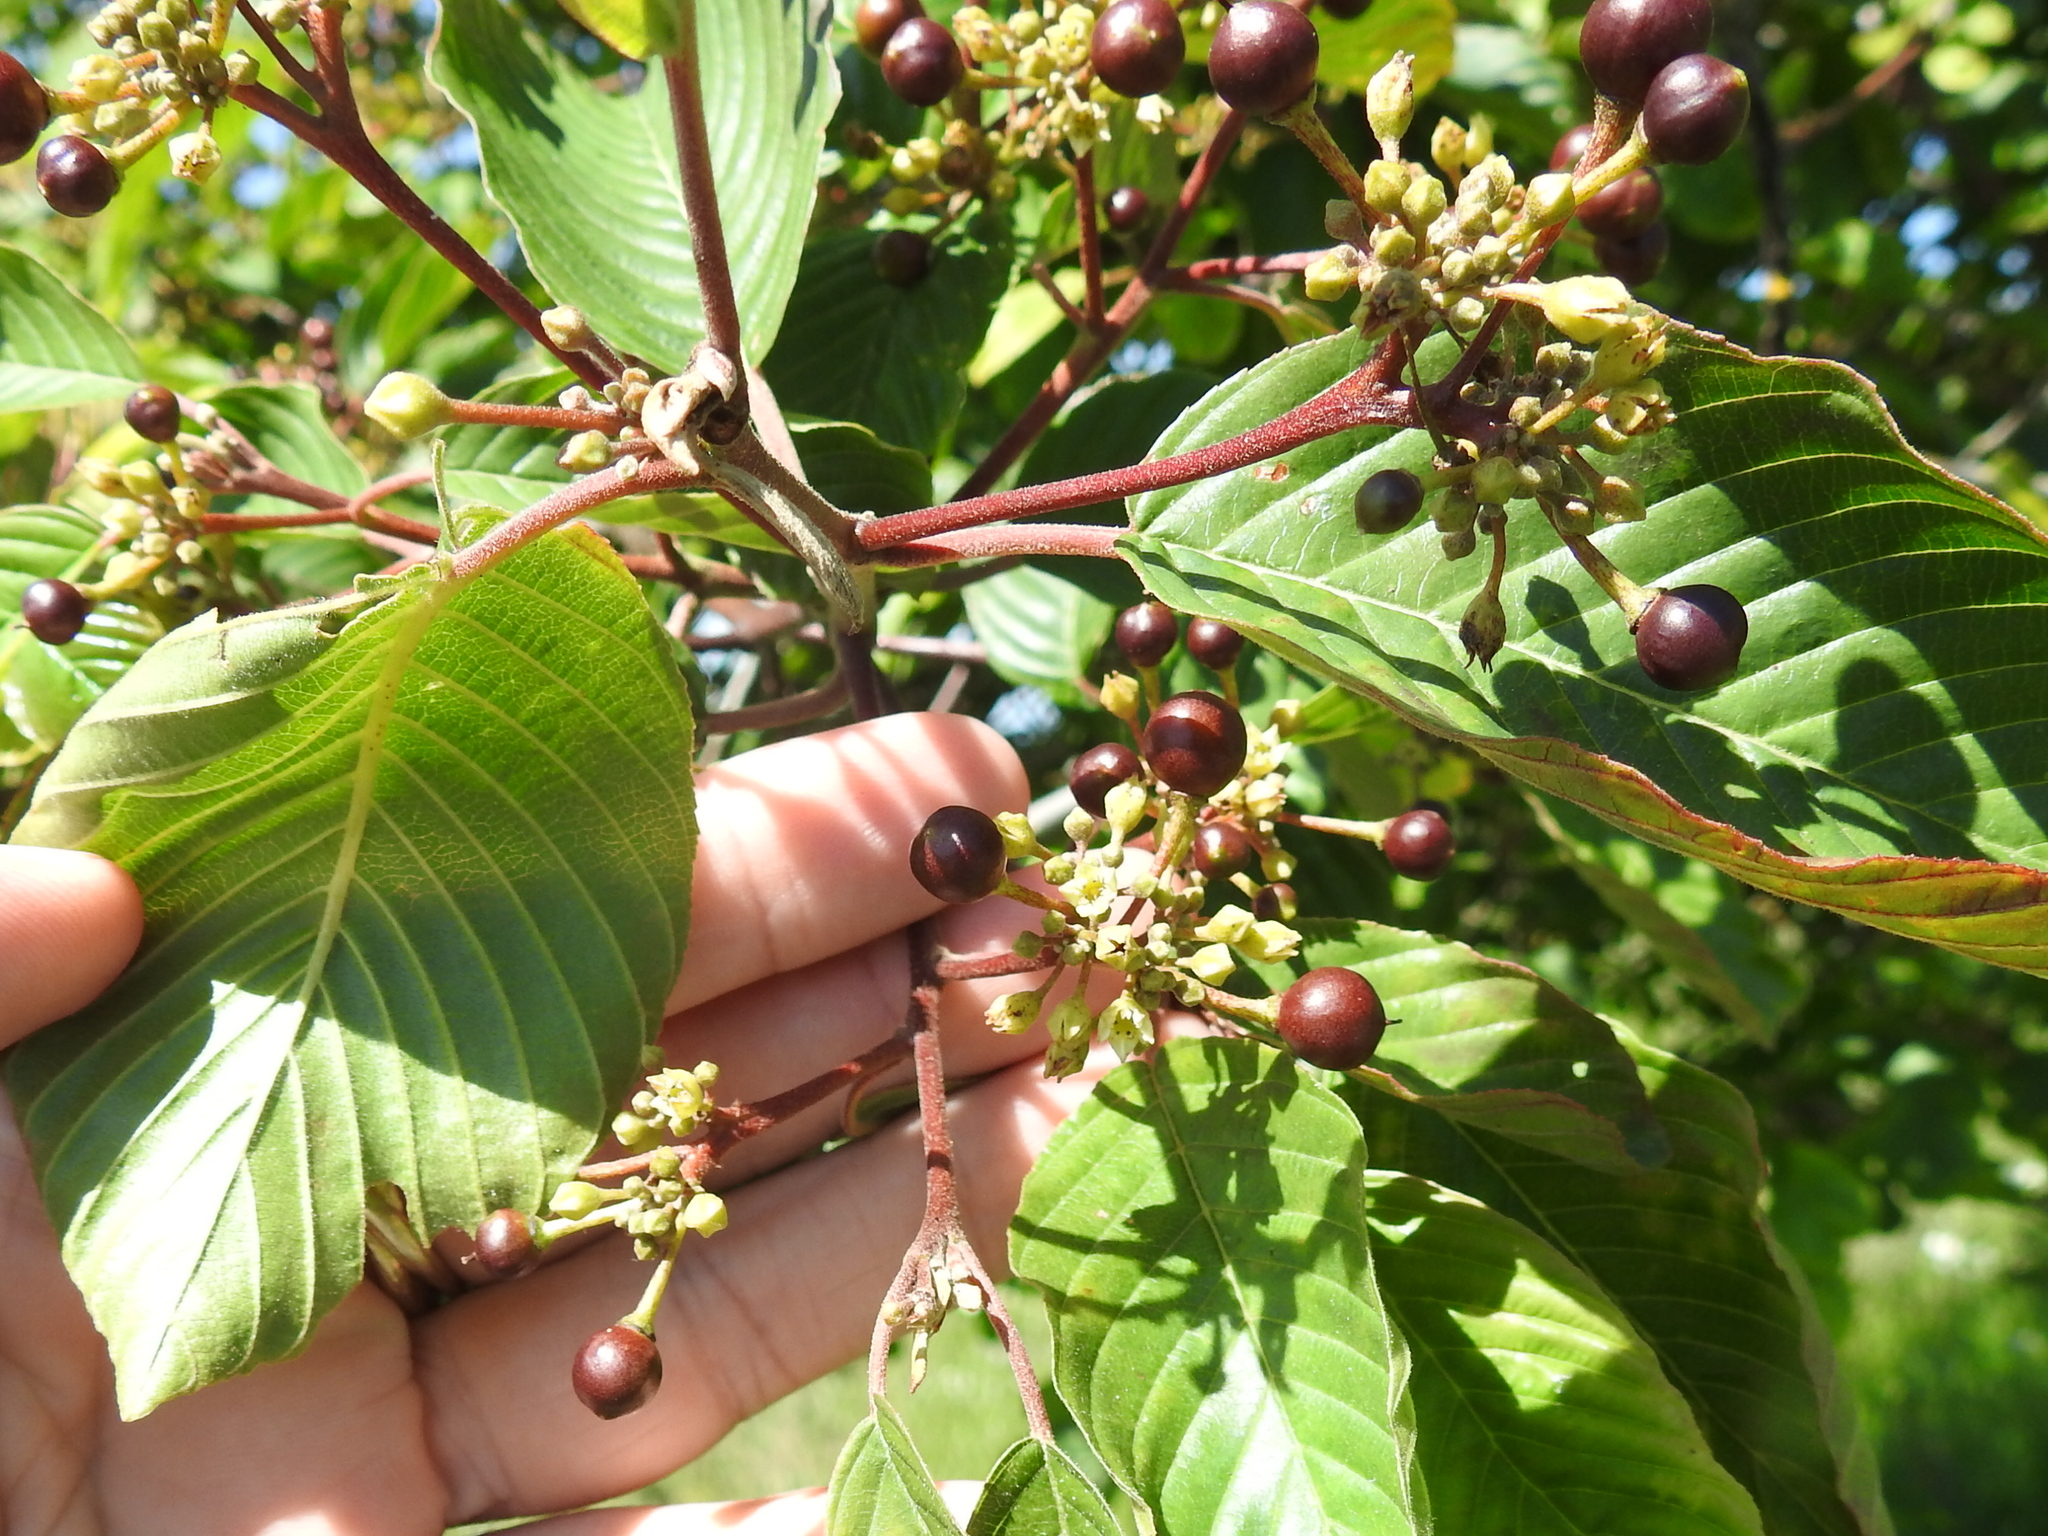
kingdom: Plantae
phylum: Tracheophyta
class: Magnoliopsida
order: Rosales
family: Rhamnaceae
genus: Frangula
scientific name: Frangula purshiana
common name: Cascara buckthorn
